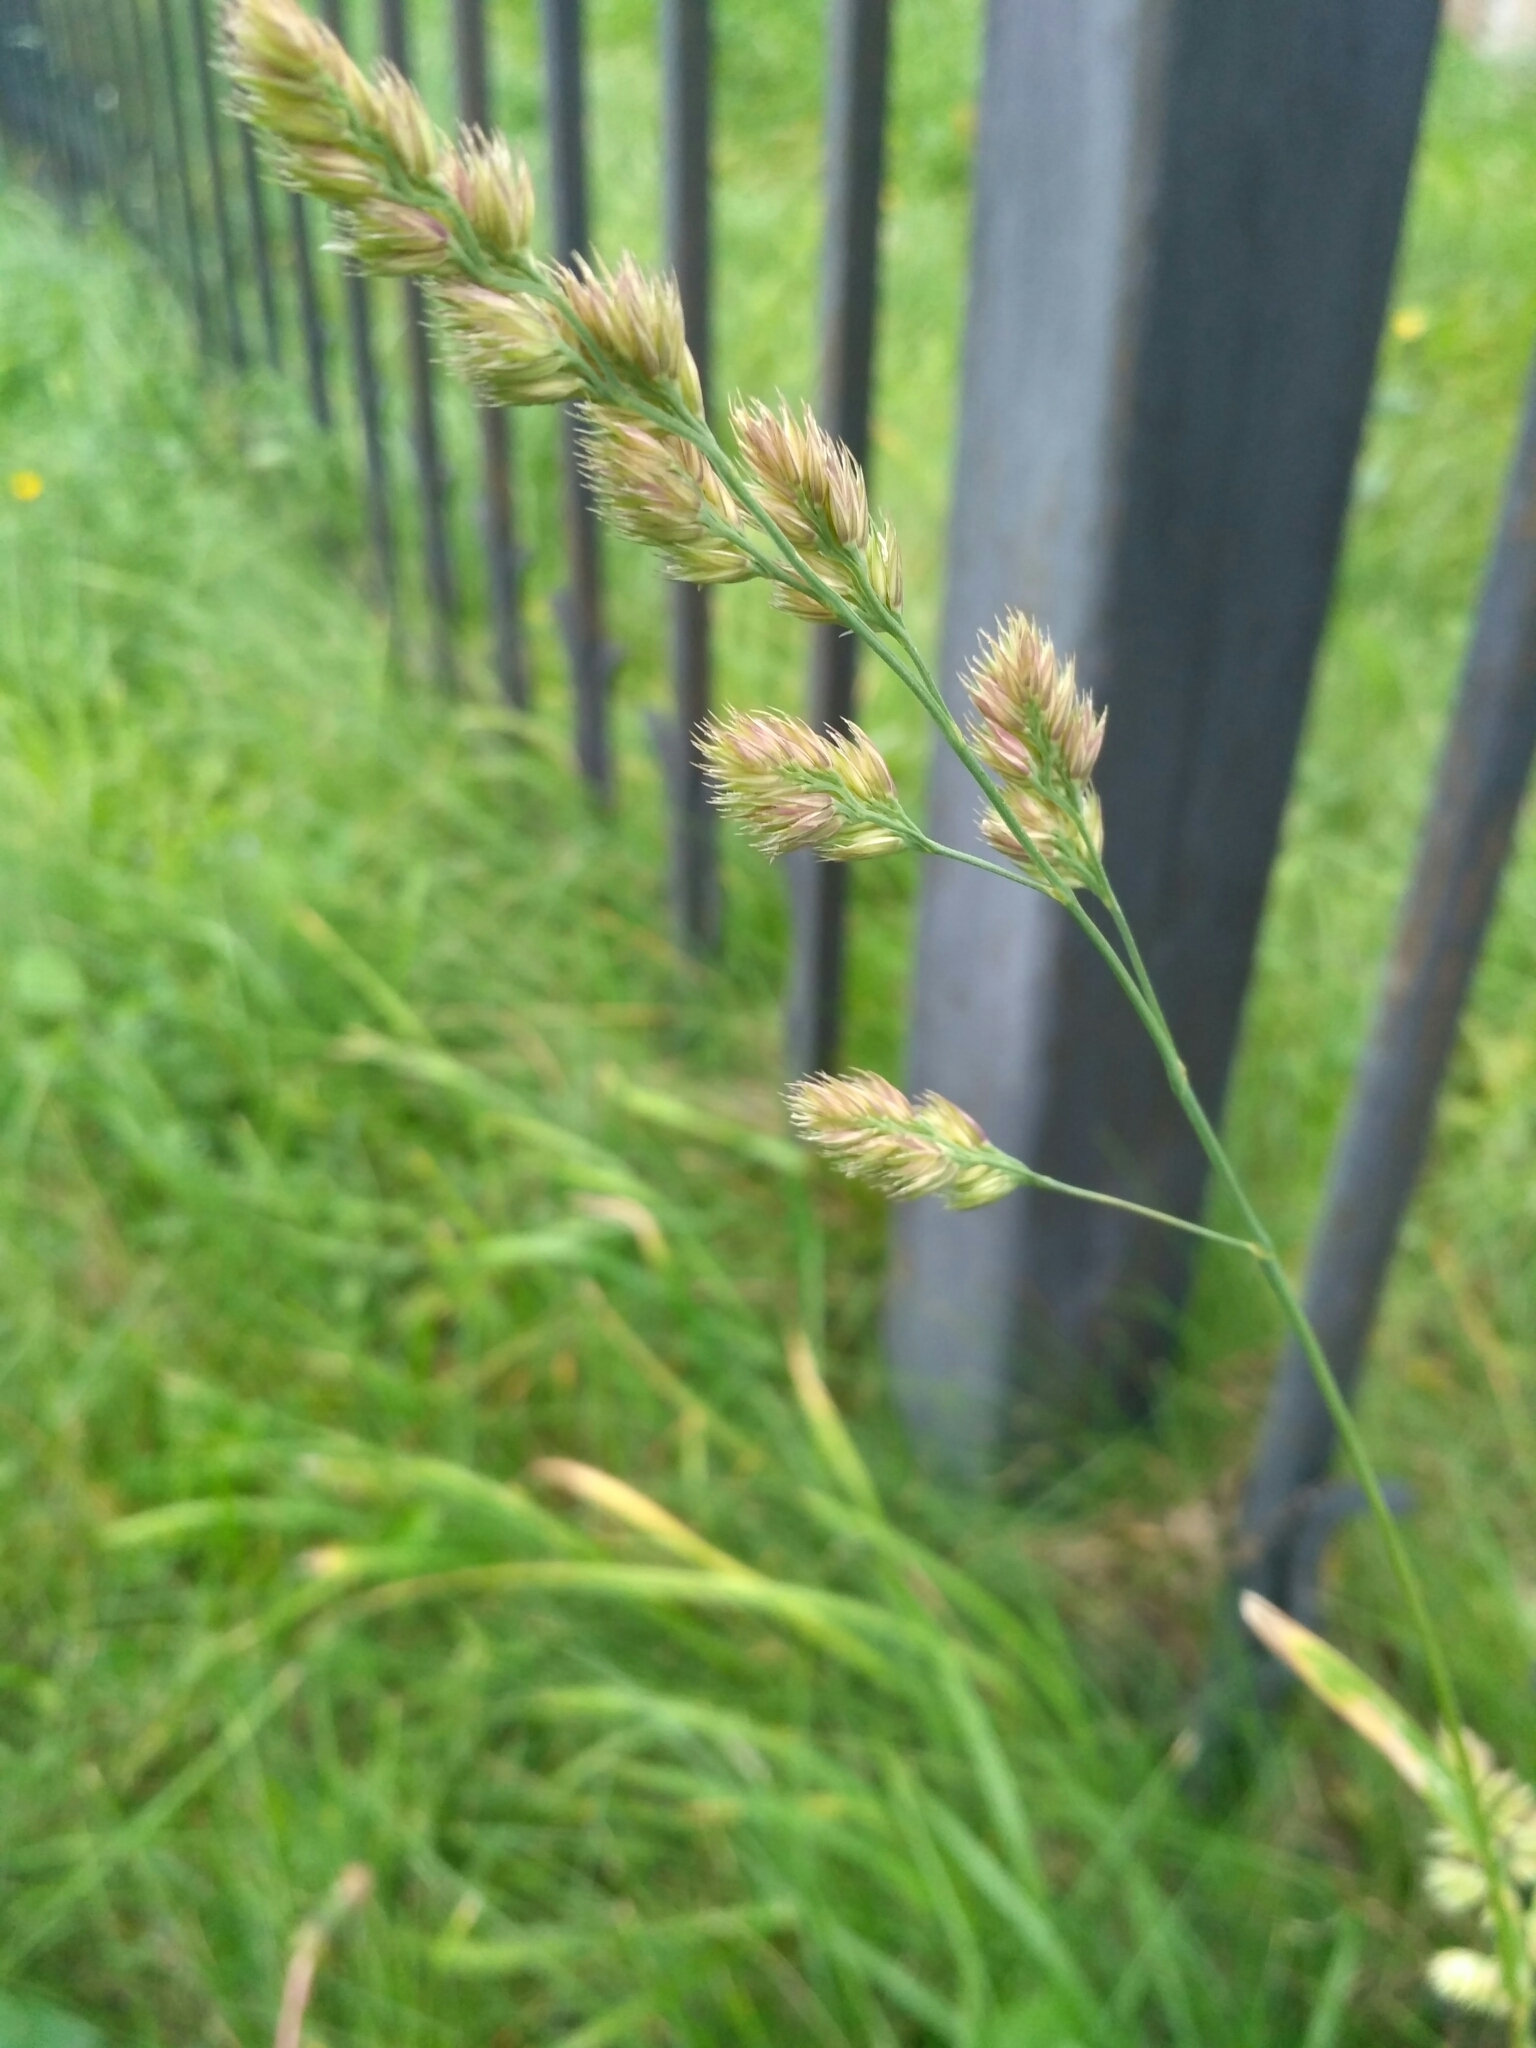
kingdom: Plantae
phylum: Tracheophyta
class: Liliopsida
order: Poales
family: Poaceae
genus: Dactylis
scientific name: Dactylis glomerata
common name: Orchardgrass
